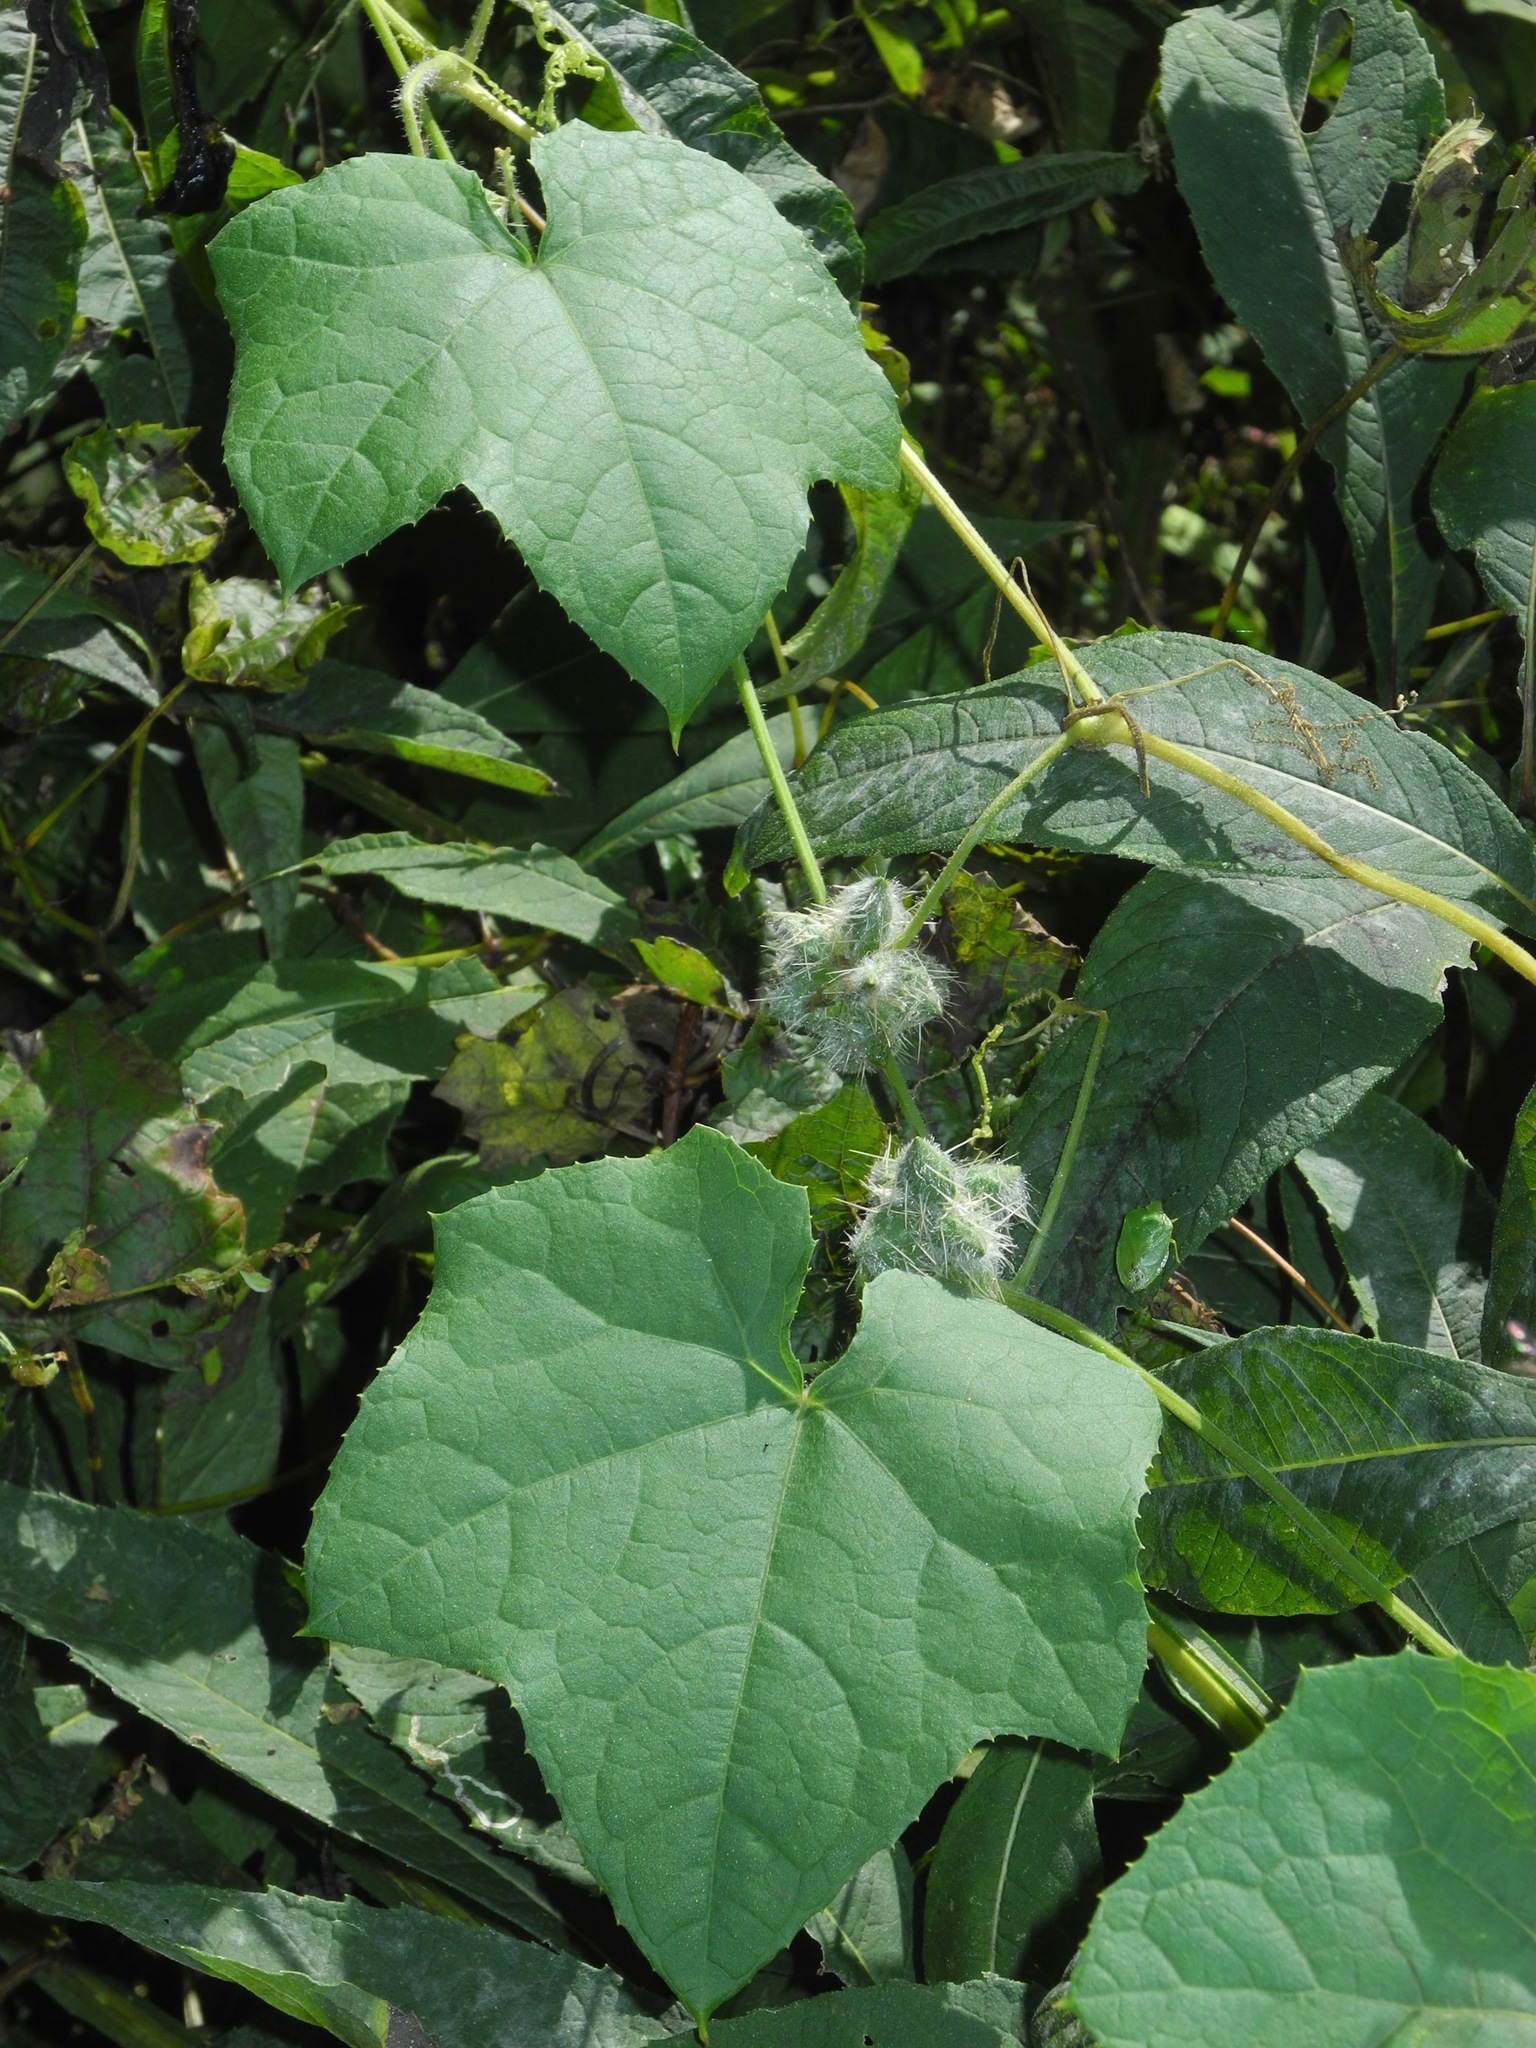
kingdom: Plantae
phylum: Tracheophyta
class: Magnoliopsida
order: Cucurbitales
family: Cucurbitaceae
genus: Sicyos
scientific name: Sicyos angulatus
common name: Angled burr cucumber
